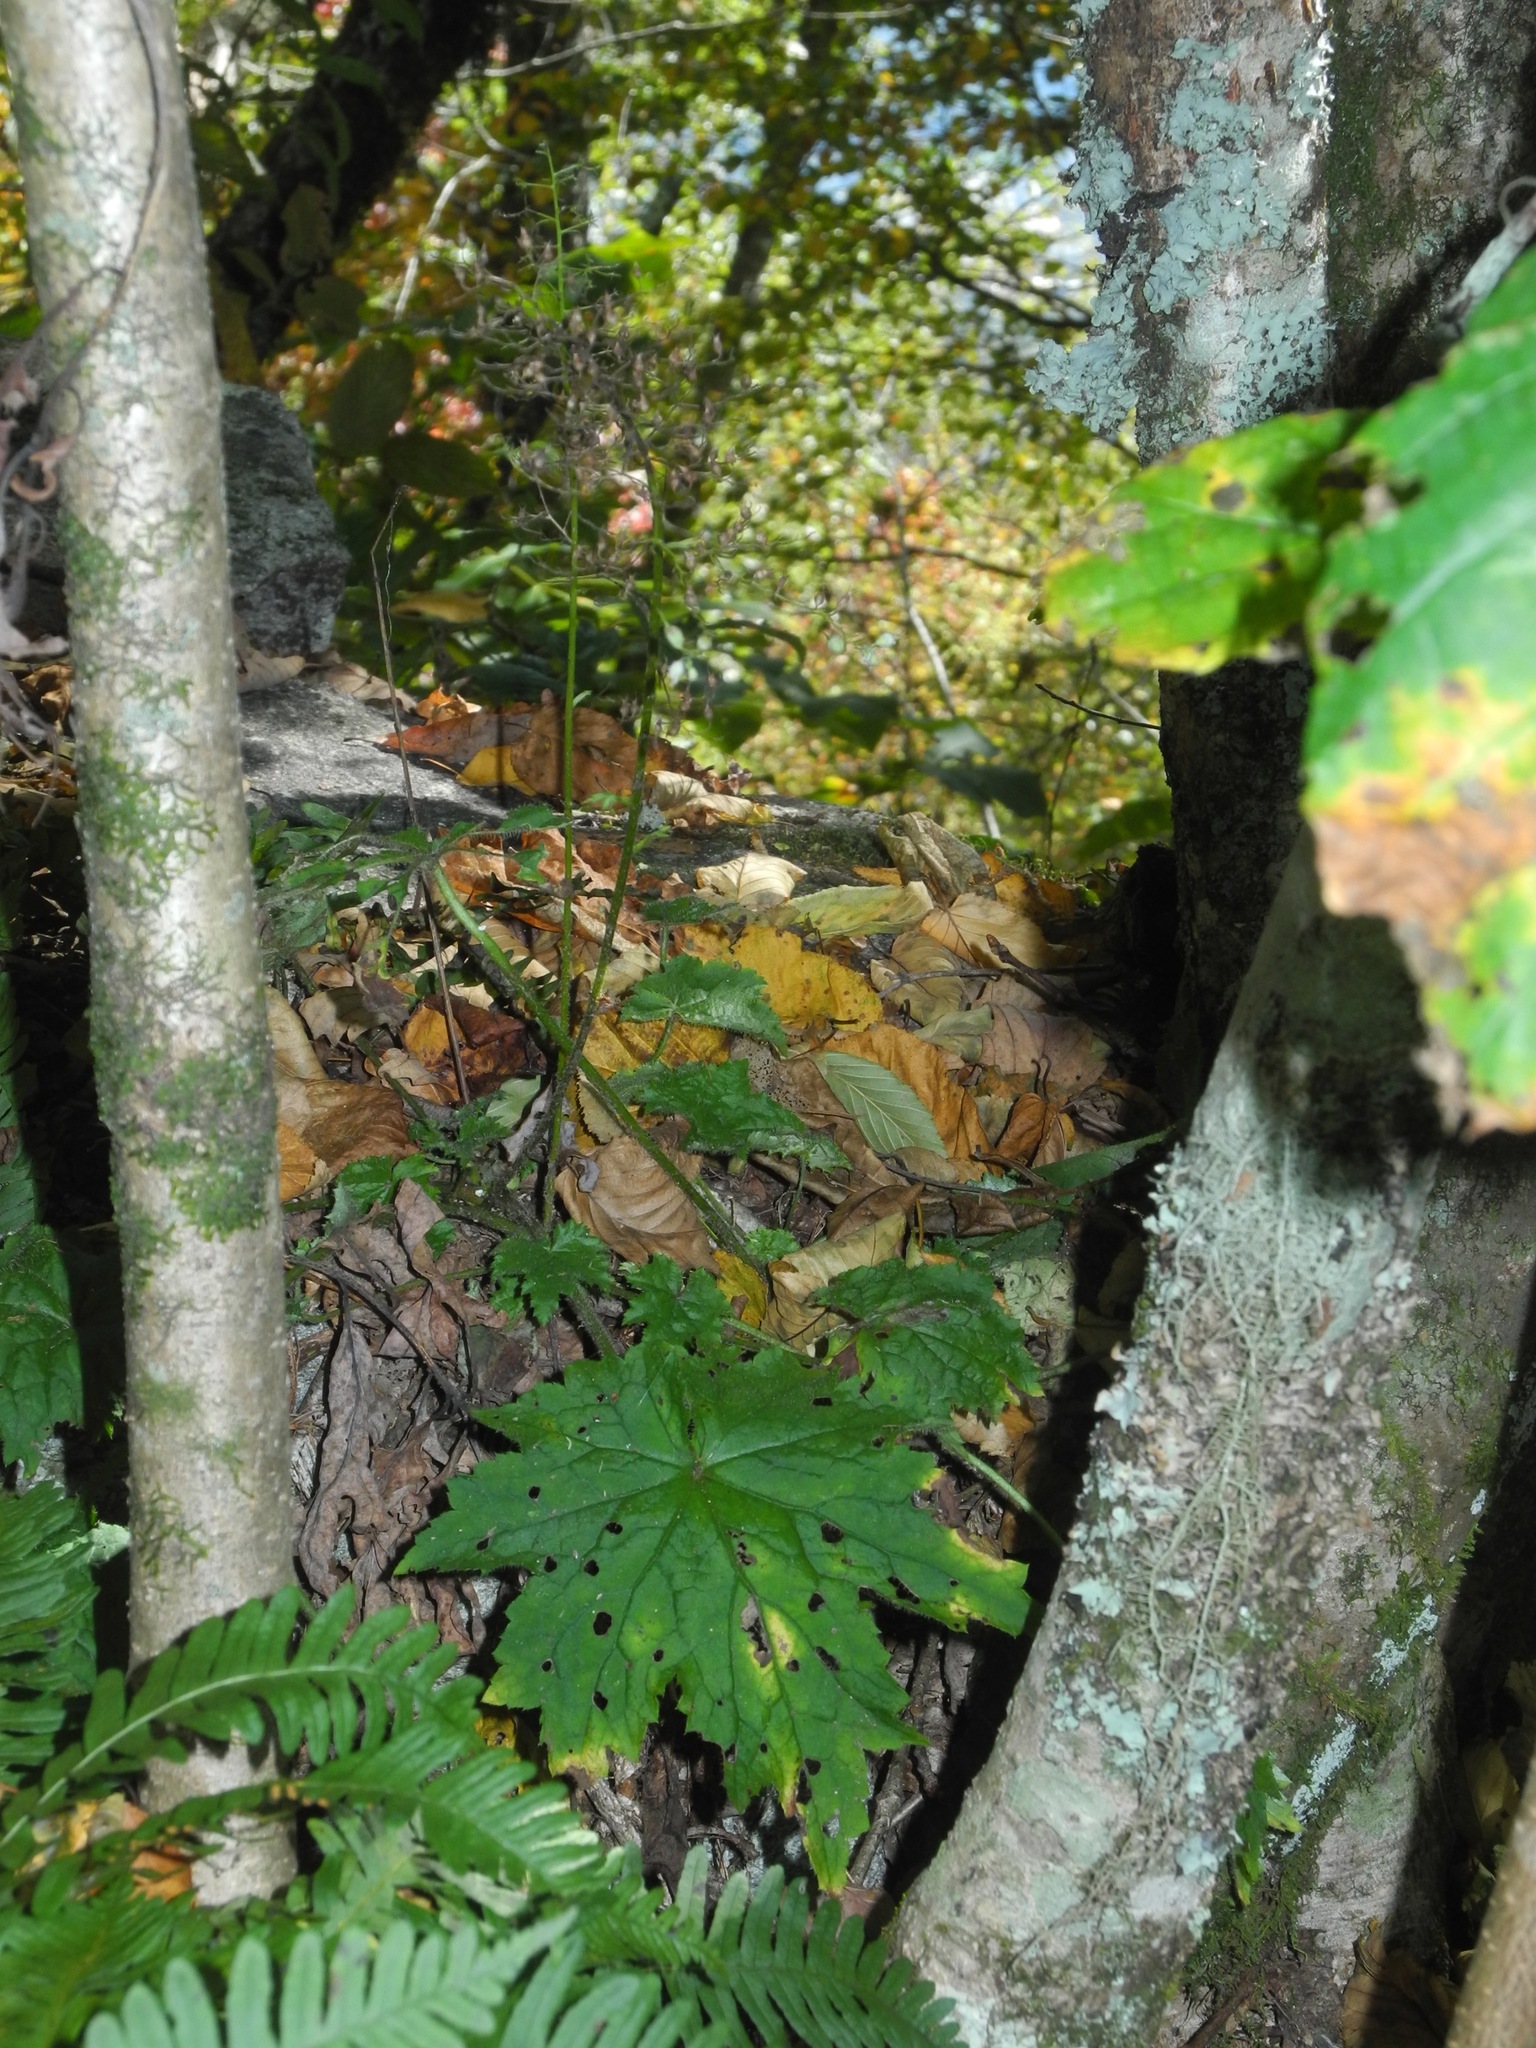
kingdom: Plantae
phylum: Tracheophyta
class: Magnoliopsida
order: Saxifragales
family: Saxifragaceae
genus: Heuchera
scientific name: Heuchera villosa
